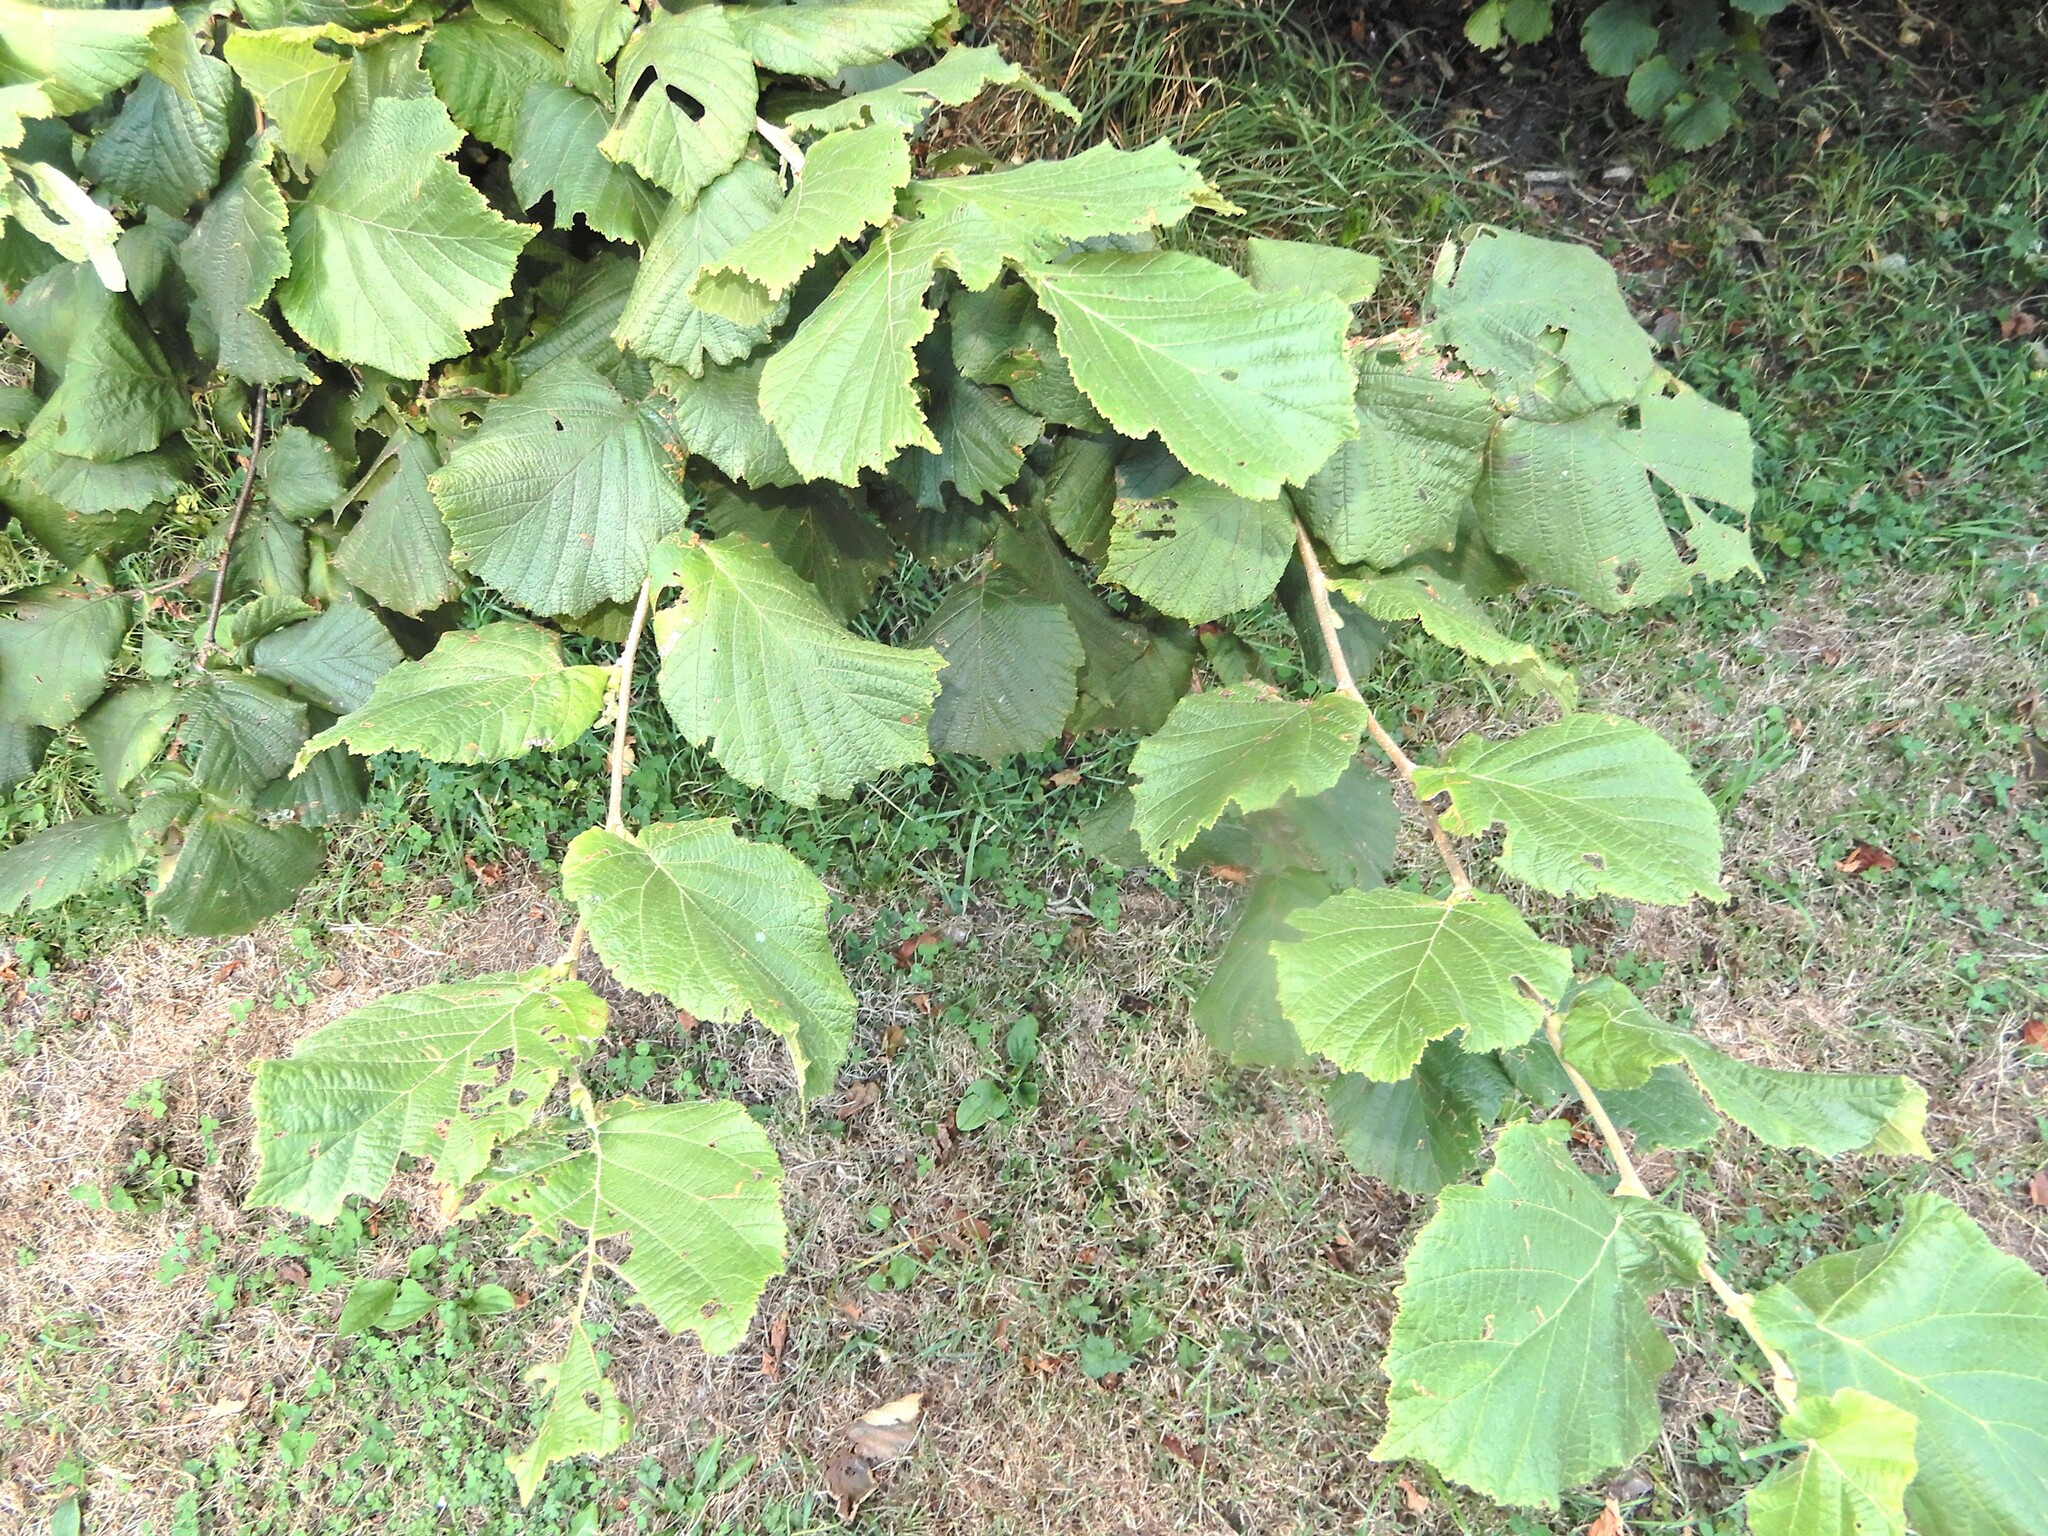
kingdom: Plantae
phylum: Tracheophyta
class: Magnoliopsida
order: Fagales
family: Betulaceae
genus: Corylus
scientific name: Corylus avellana
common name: European hazel
